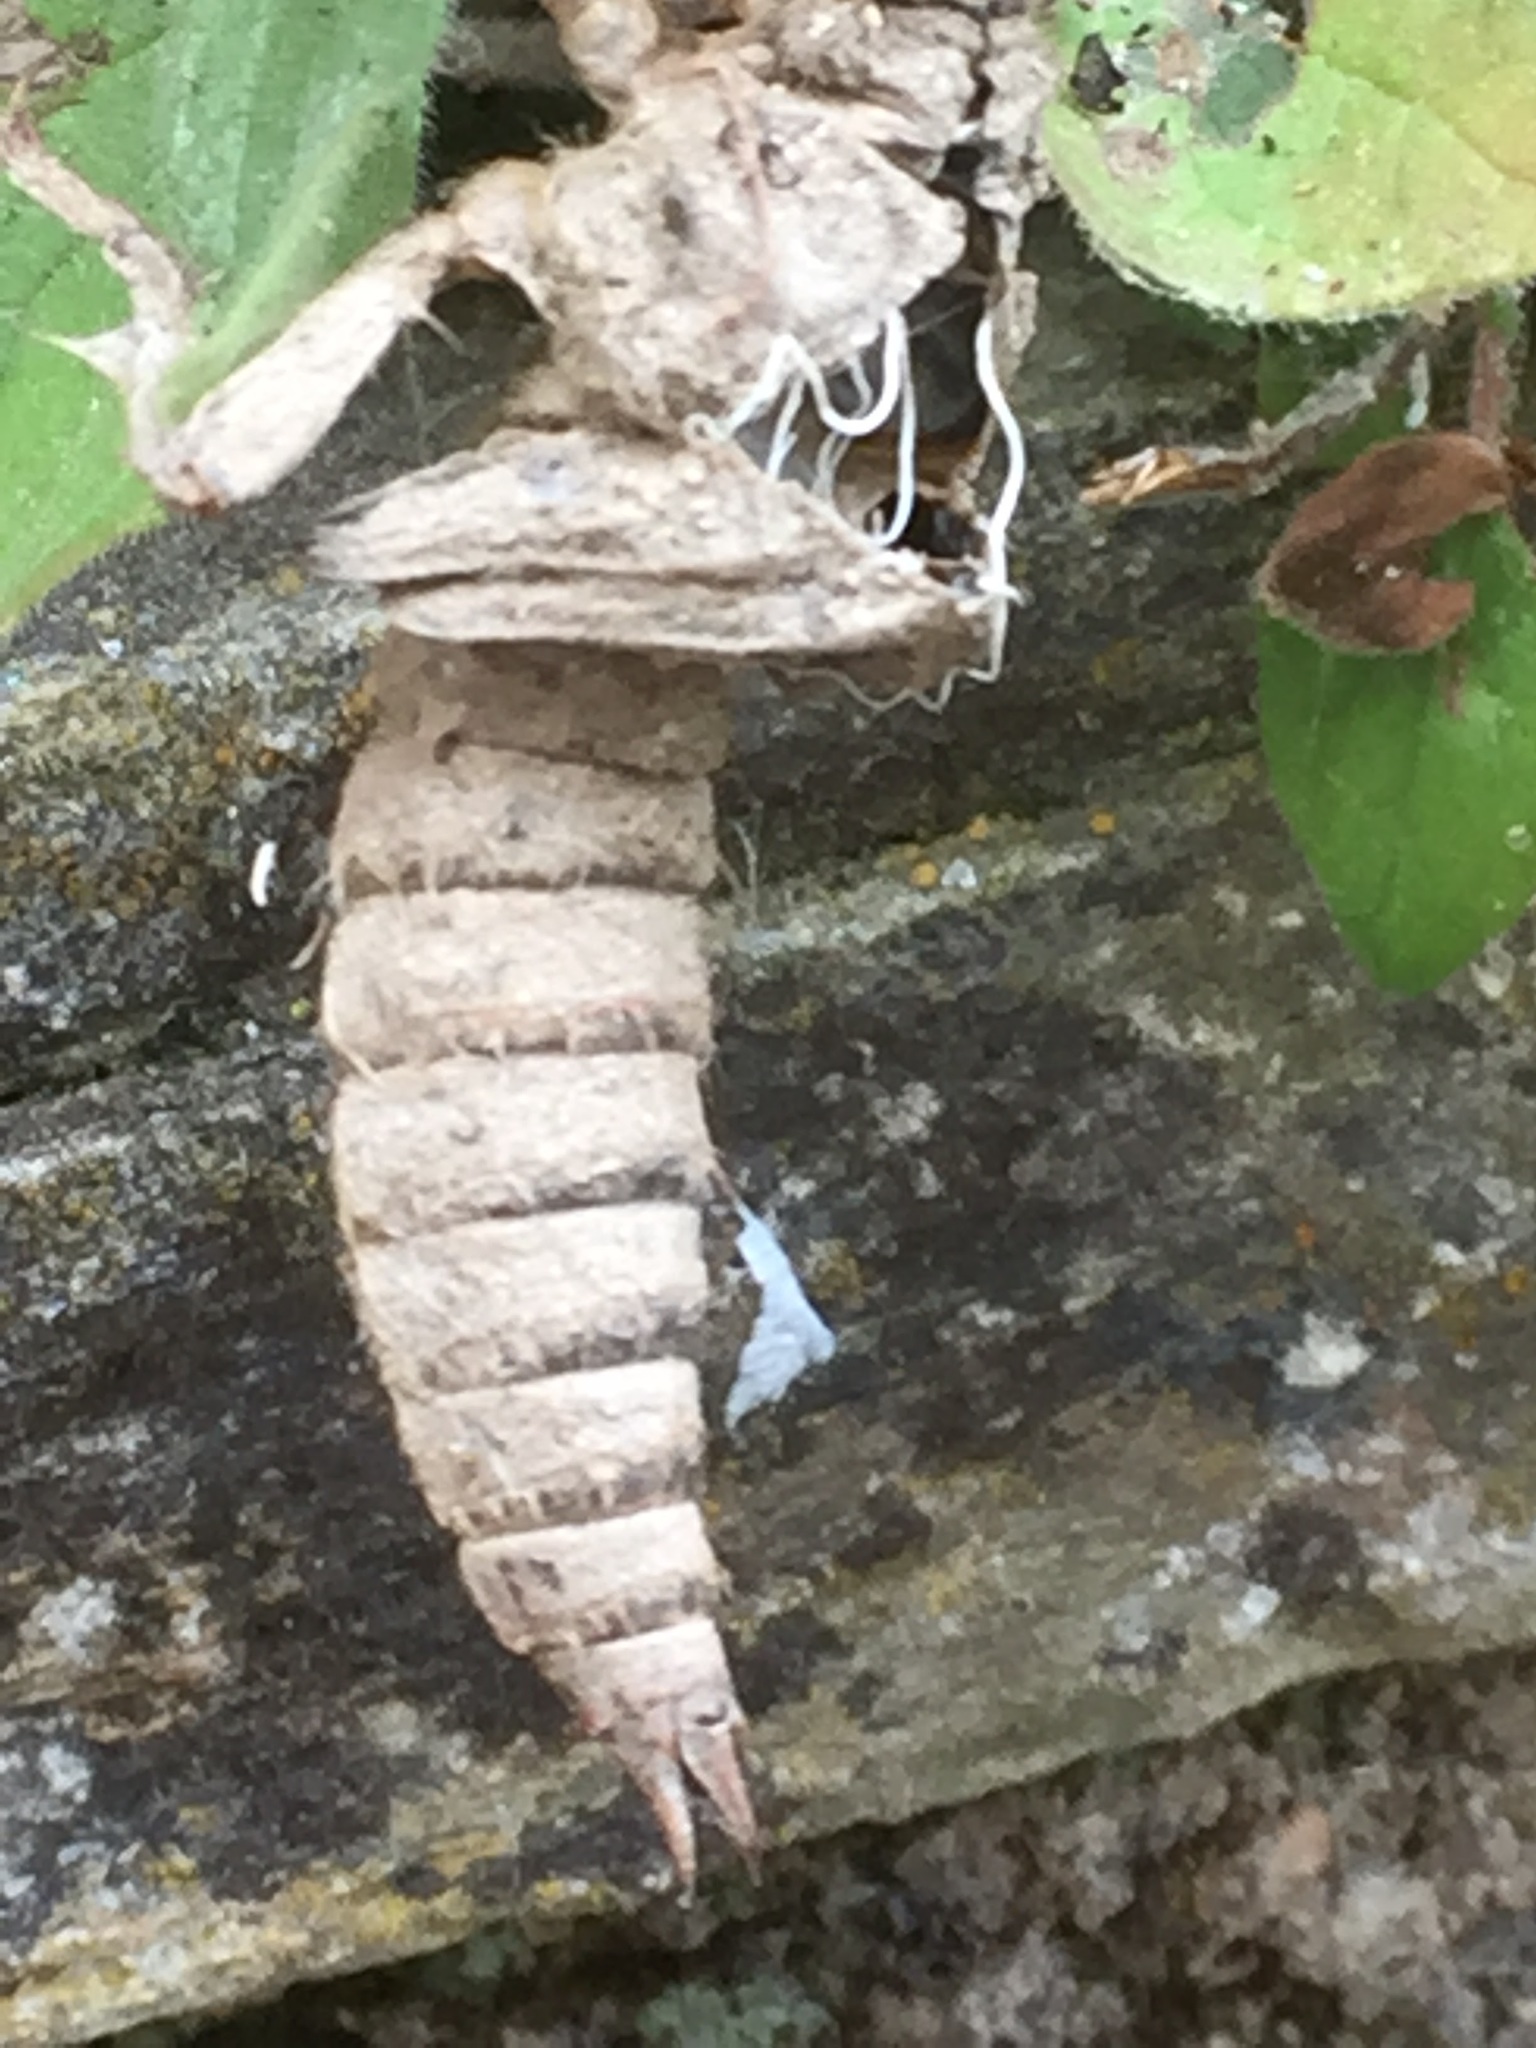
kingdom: Animalia
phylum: Arthropoda
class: Insecta
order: Odonata
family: Cordulegastridae
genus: Cordulegaster
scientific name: Cordulegaster boltonii
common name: Golden-ringed dragonfly
